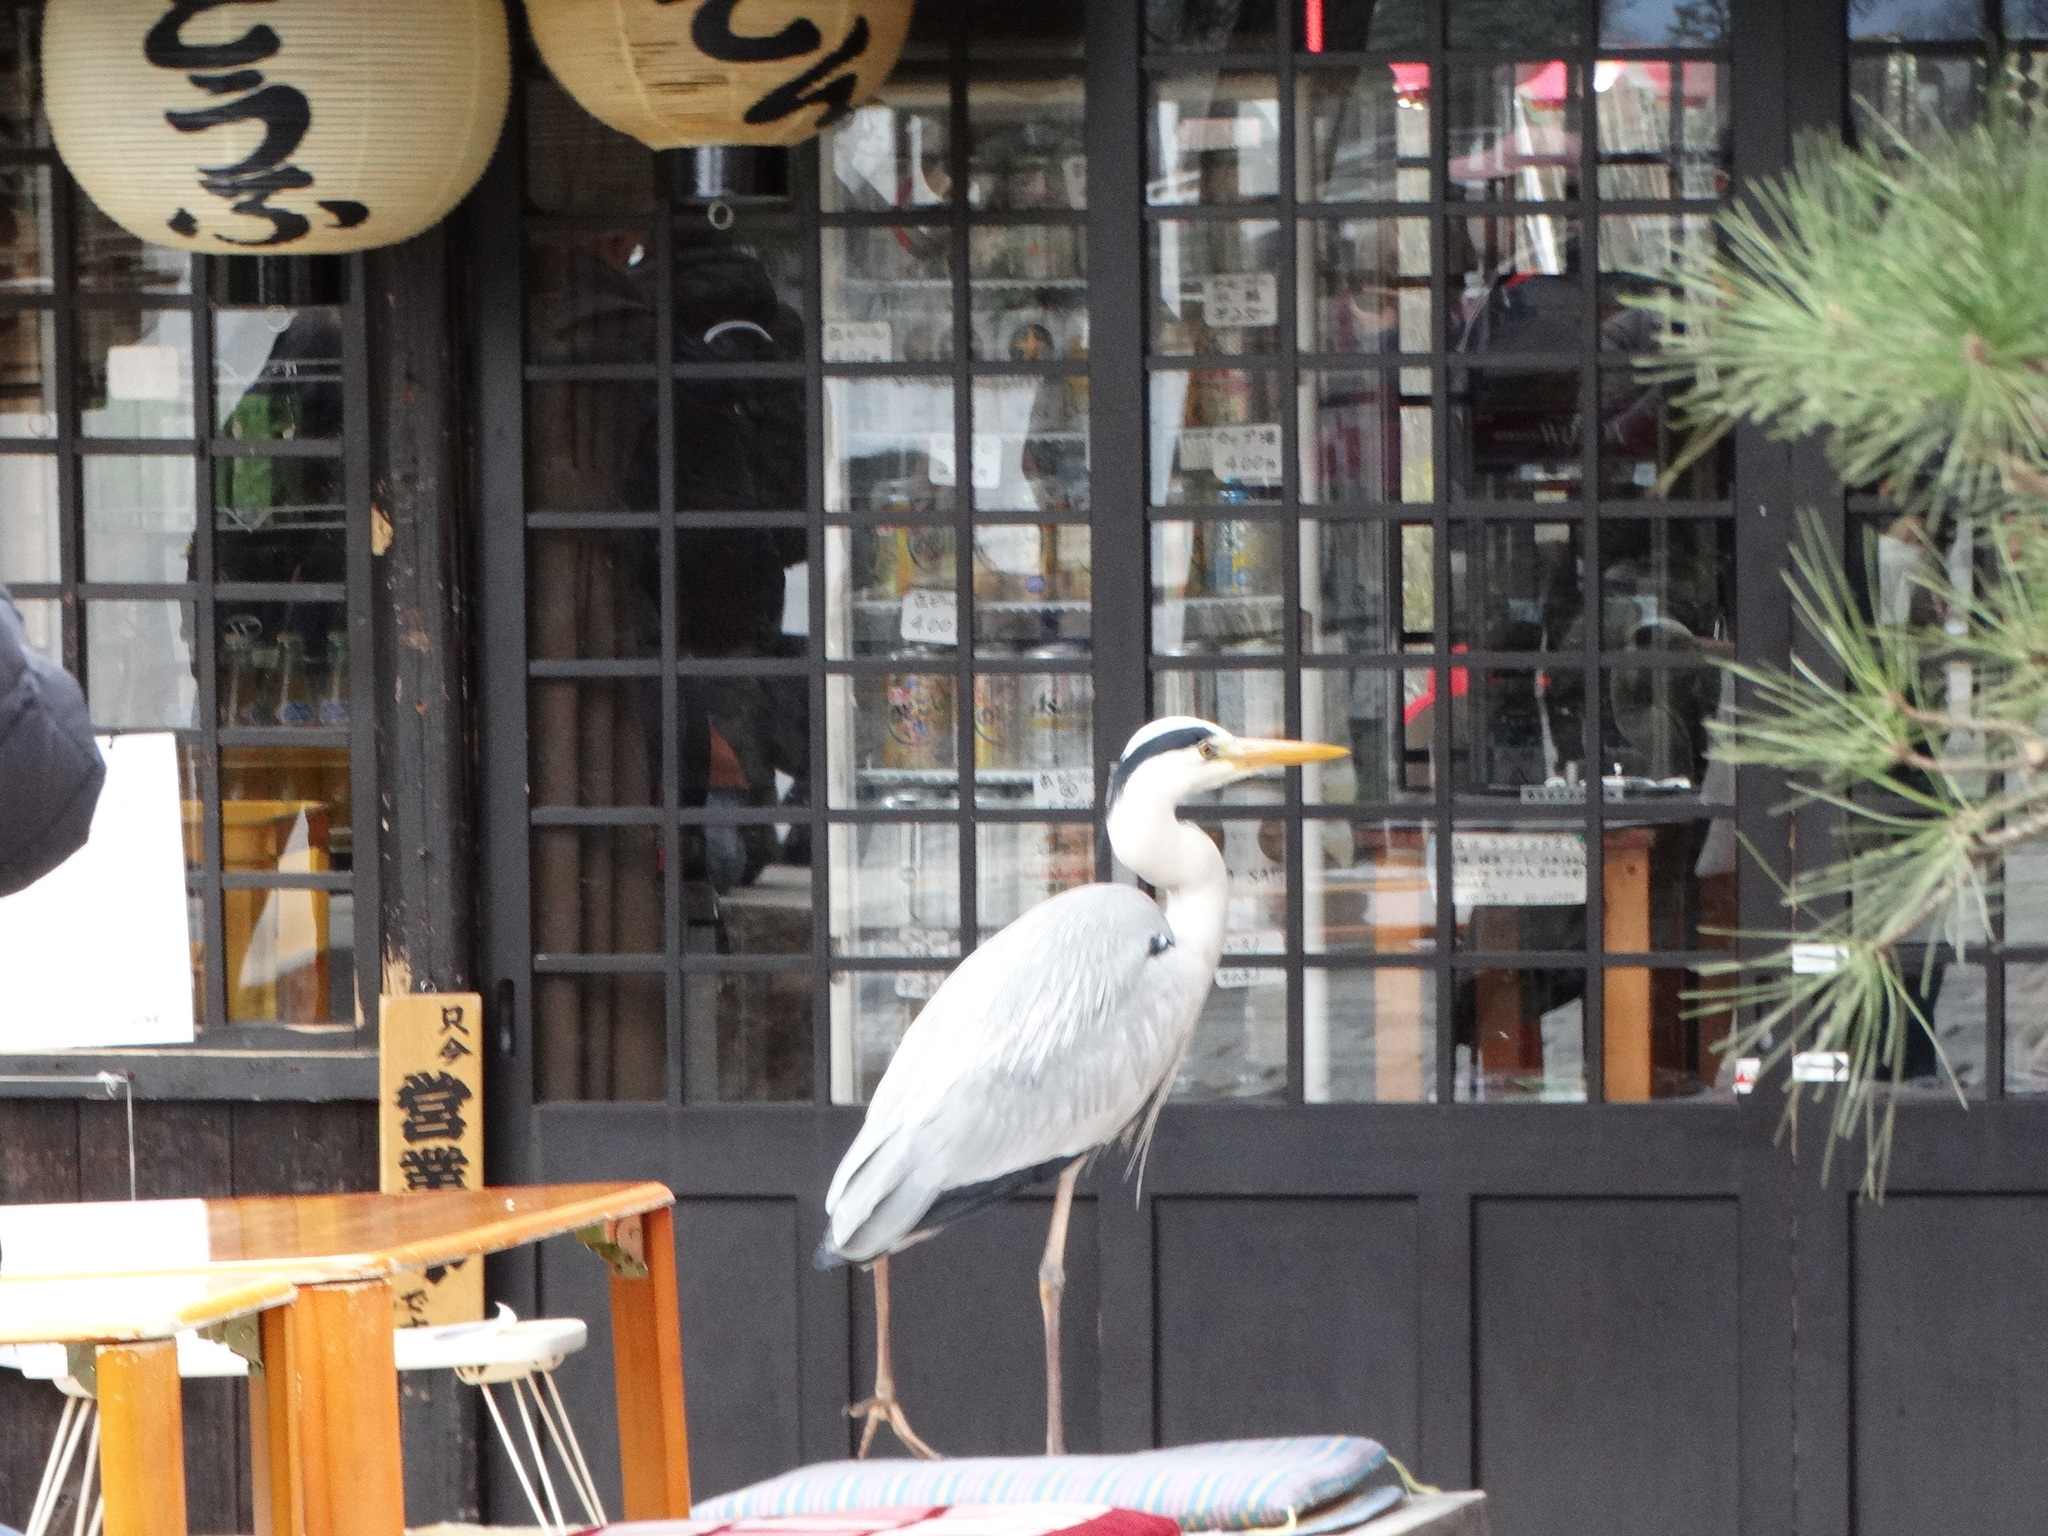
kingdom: Animalia
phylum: Chordata
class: Aves
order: Pelecaniformes
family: Ardeidae
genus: Ardea
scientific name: Ardea cinerea
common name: Grey heron
